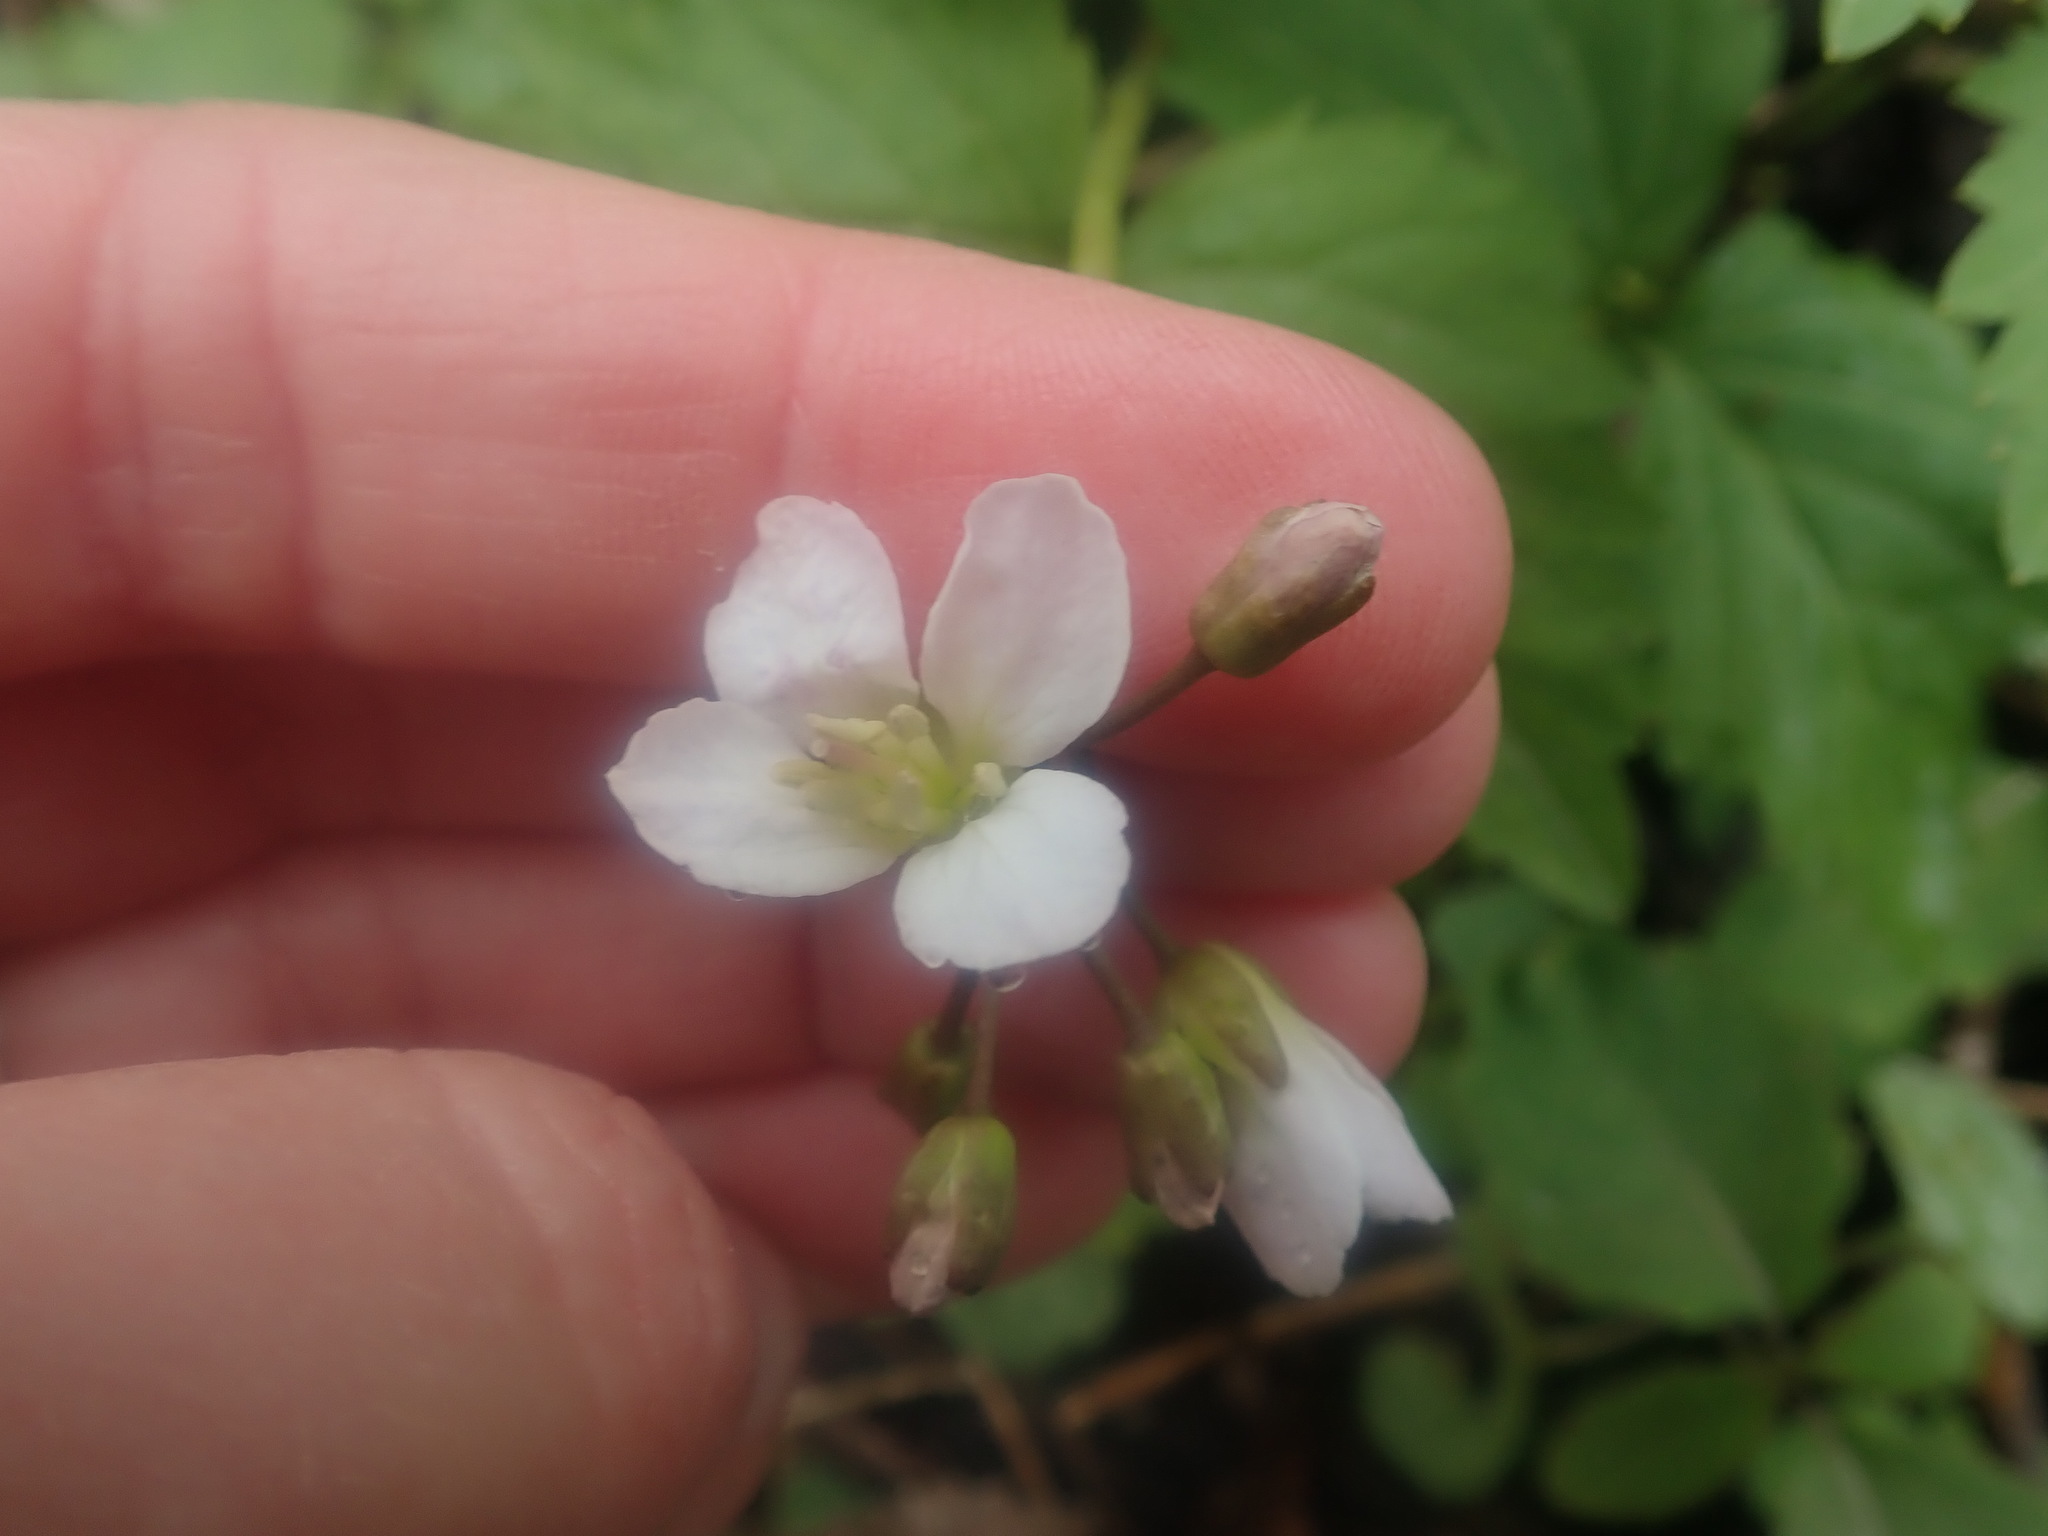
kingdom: Plantae
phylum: Tracheophyta
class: Magnoliopsida
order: Brassicales
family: Brassicaceae
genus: Cardamine
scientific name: Cardamine diphylla
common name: Broad-leaved toothwort
